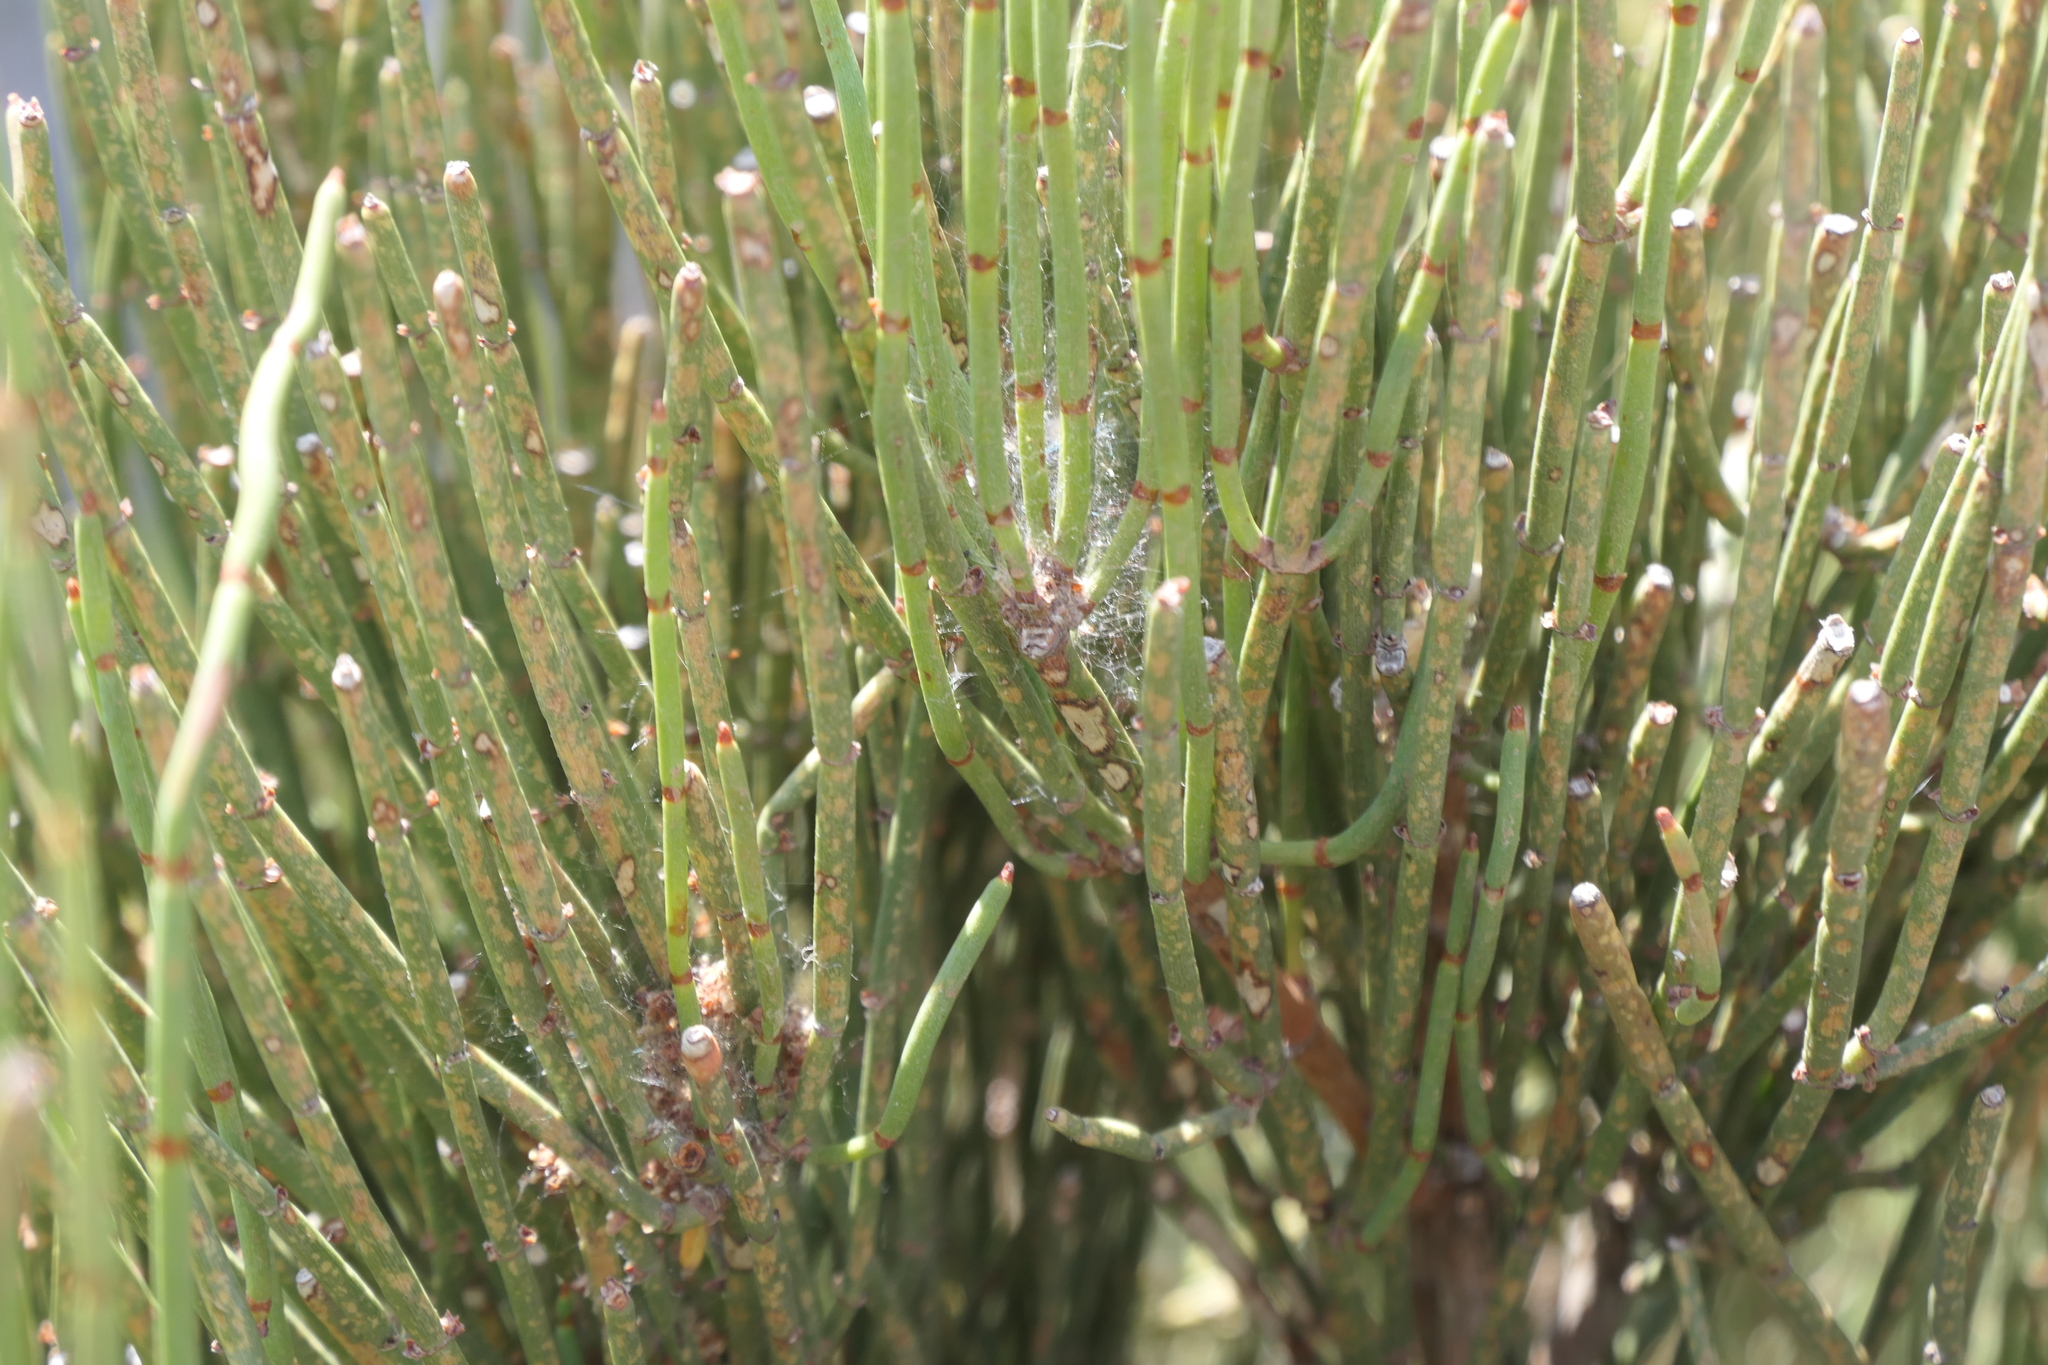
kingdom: Plantae
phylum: Tracheophyta
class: Gnetopsida
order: Ephedrales
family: Ephedraceae
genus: Ephedra
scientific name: Ephedra fragilis
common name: Joint pine
